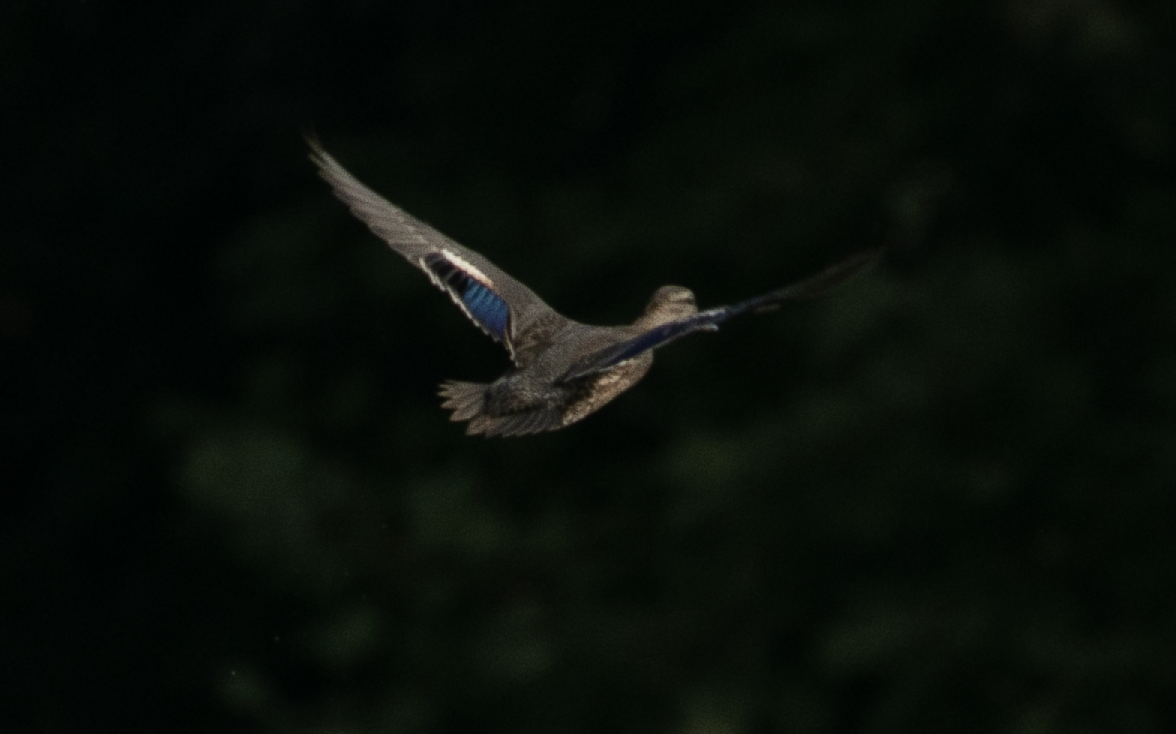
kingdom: Animalia
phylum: Chordata
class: Aves
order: Anseriformes
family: Anatidae
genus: Anas
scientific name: Anas crecca
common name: Eurasian teal
